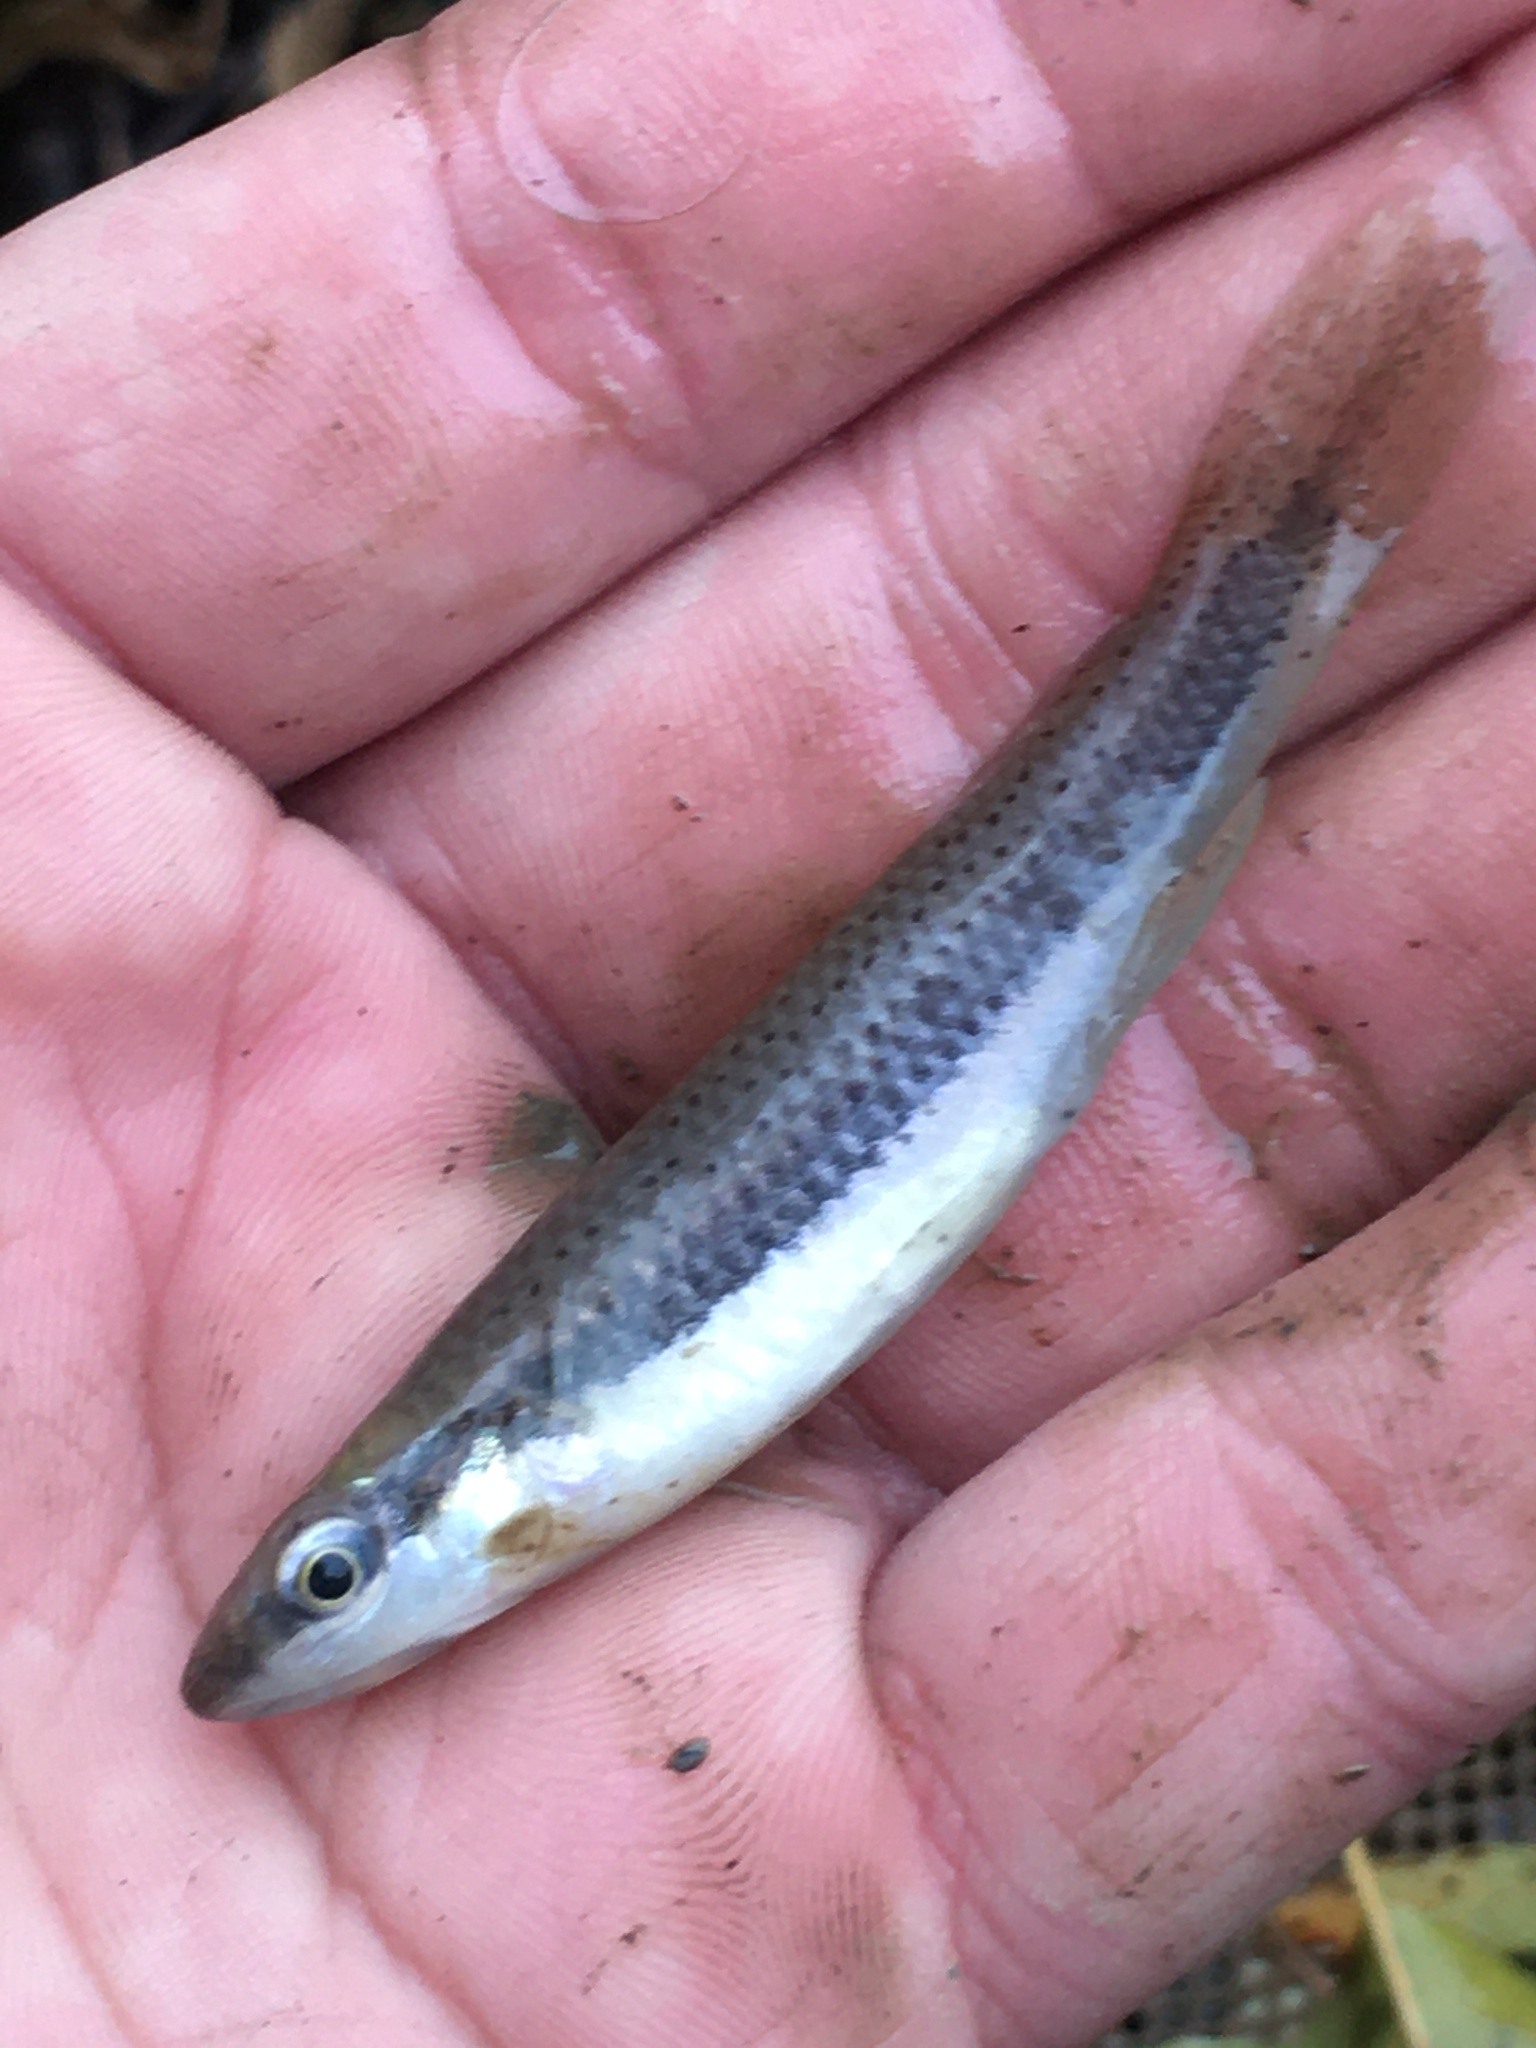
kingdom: Animalia
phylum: Chordata
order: Cyprinodontiformes
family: Fundulidae
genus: Fundulus
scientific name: Fundulus olivaceus
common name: Blackspotted topminnow
